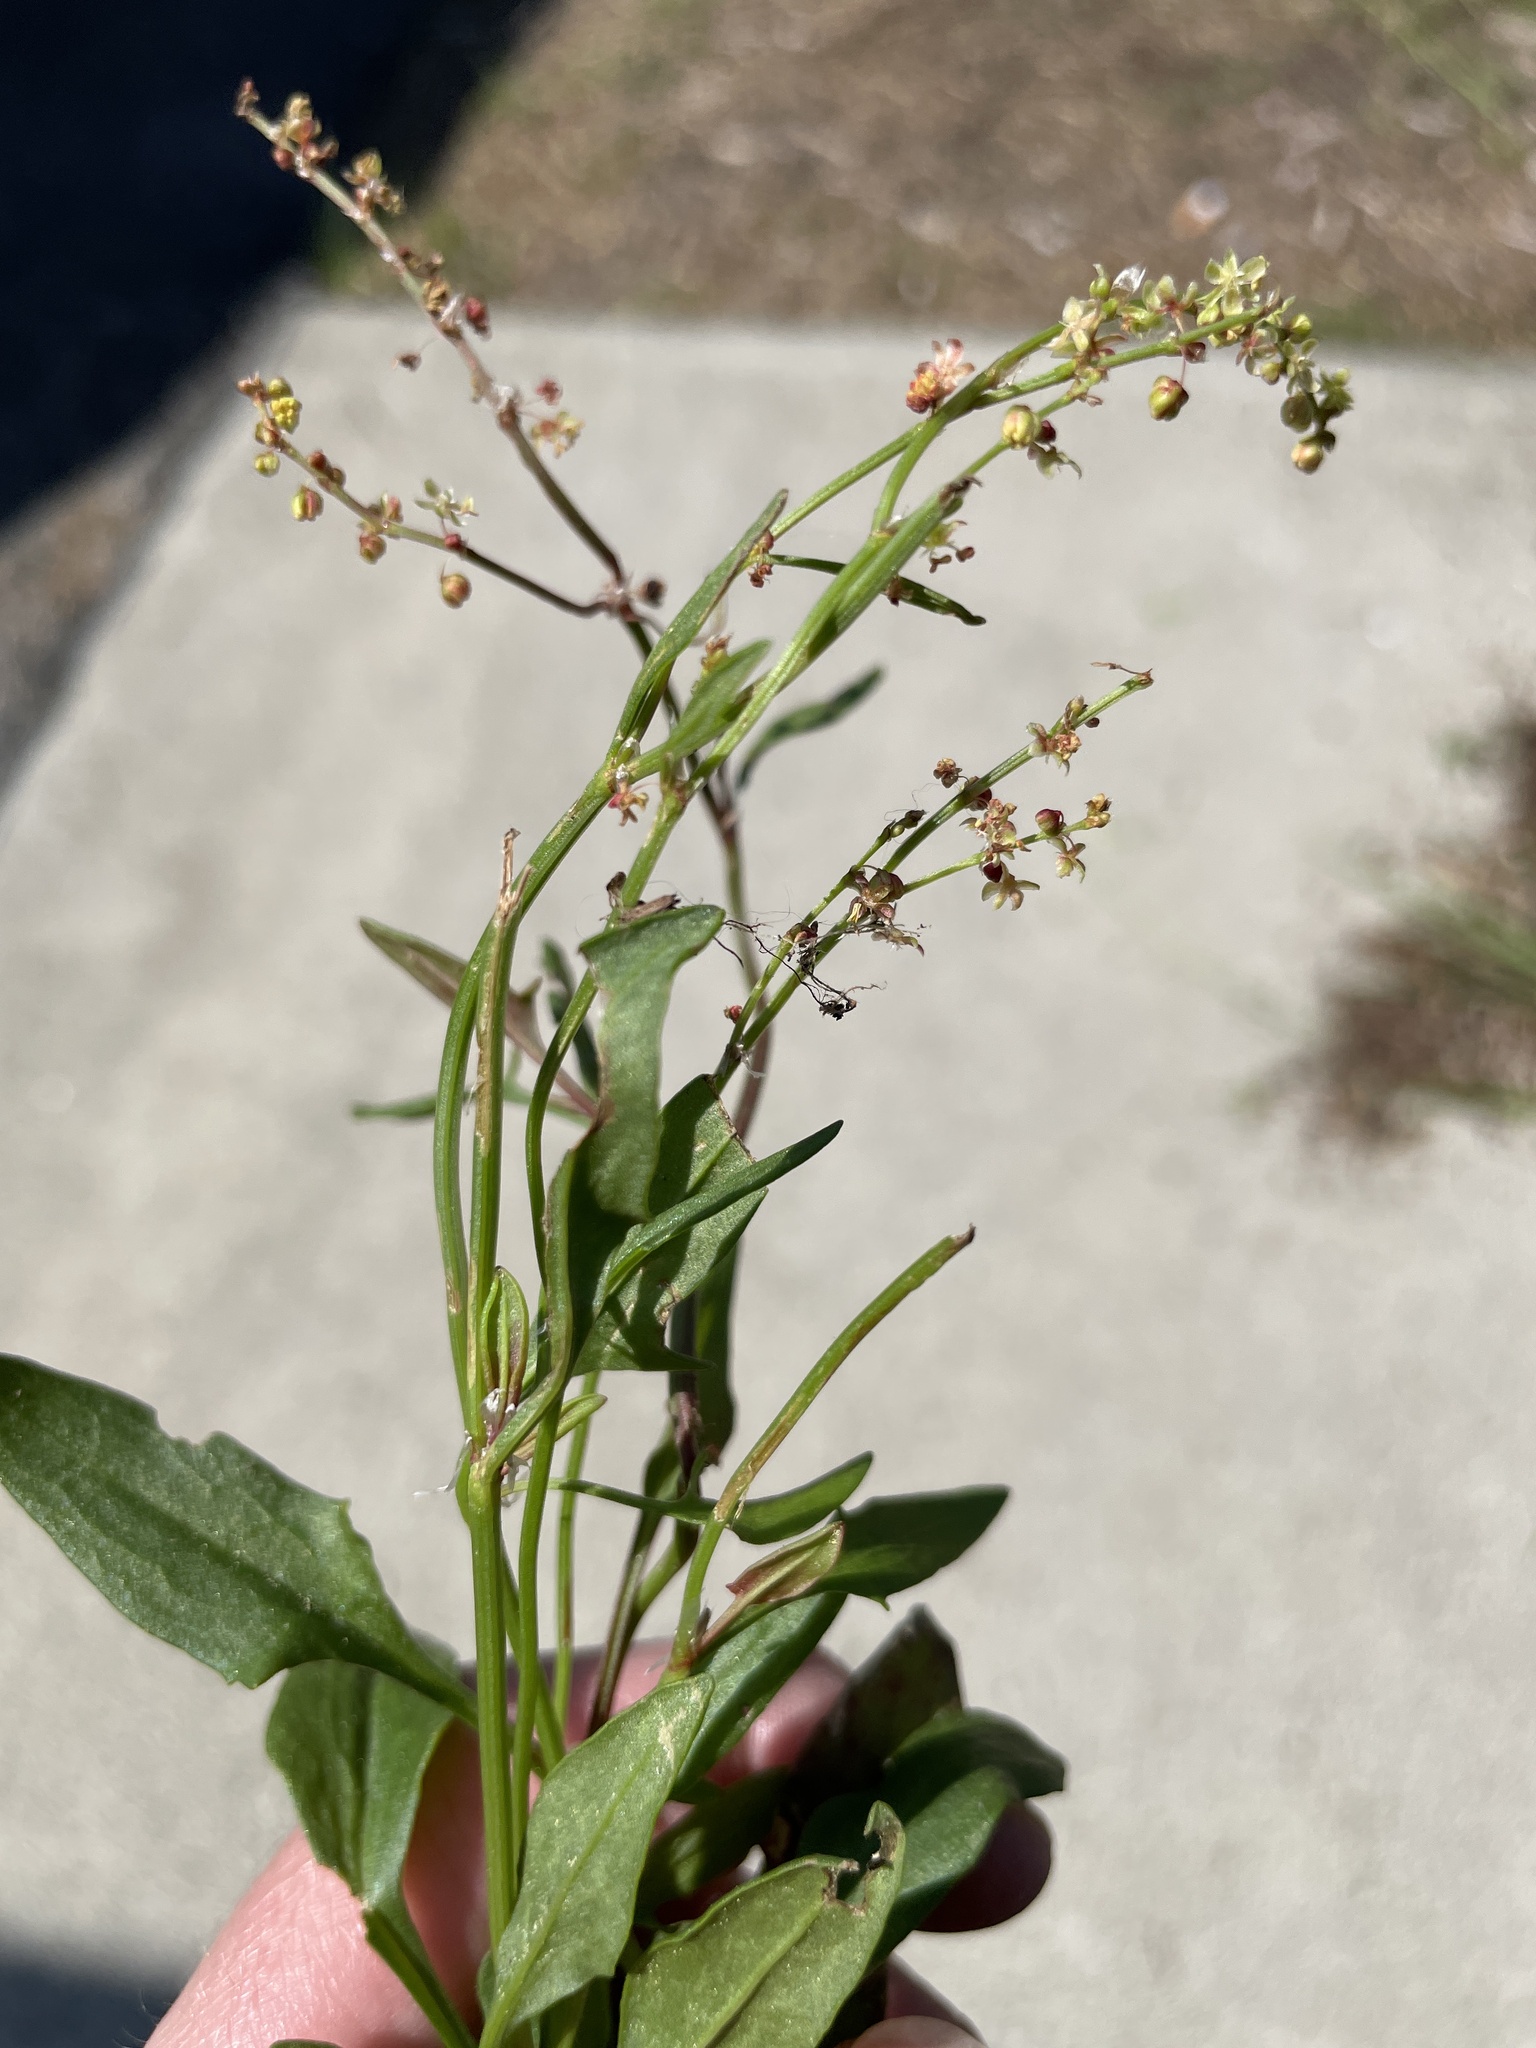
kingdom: Plantae
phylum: Tracheophyta
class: Magnoliopsida
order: Caryophyllales
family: Polygonaceae
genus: Rumex
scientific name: Rumex acetosella
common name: Common sheep sorrel
